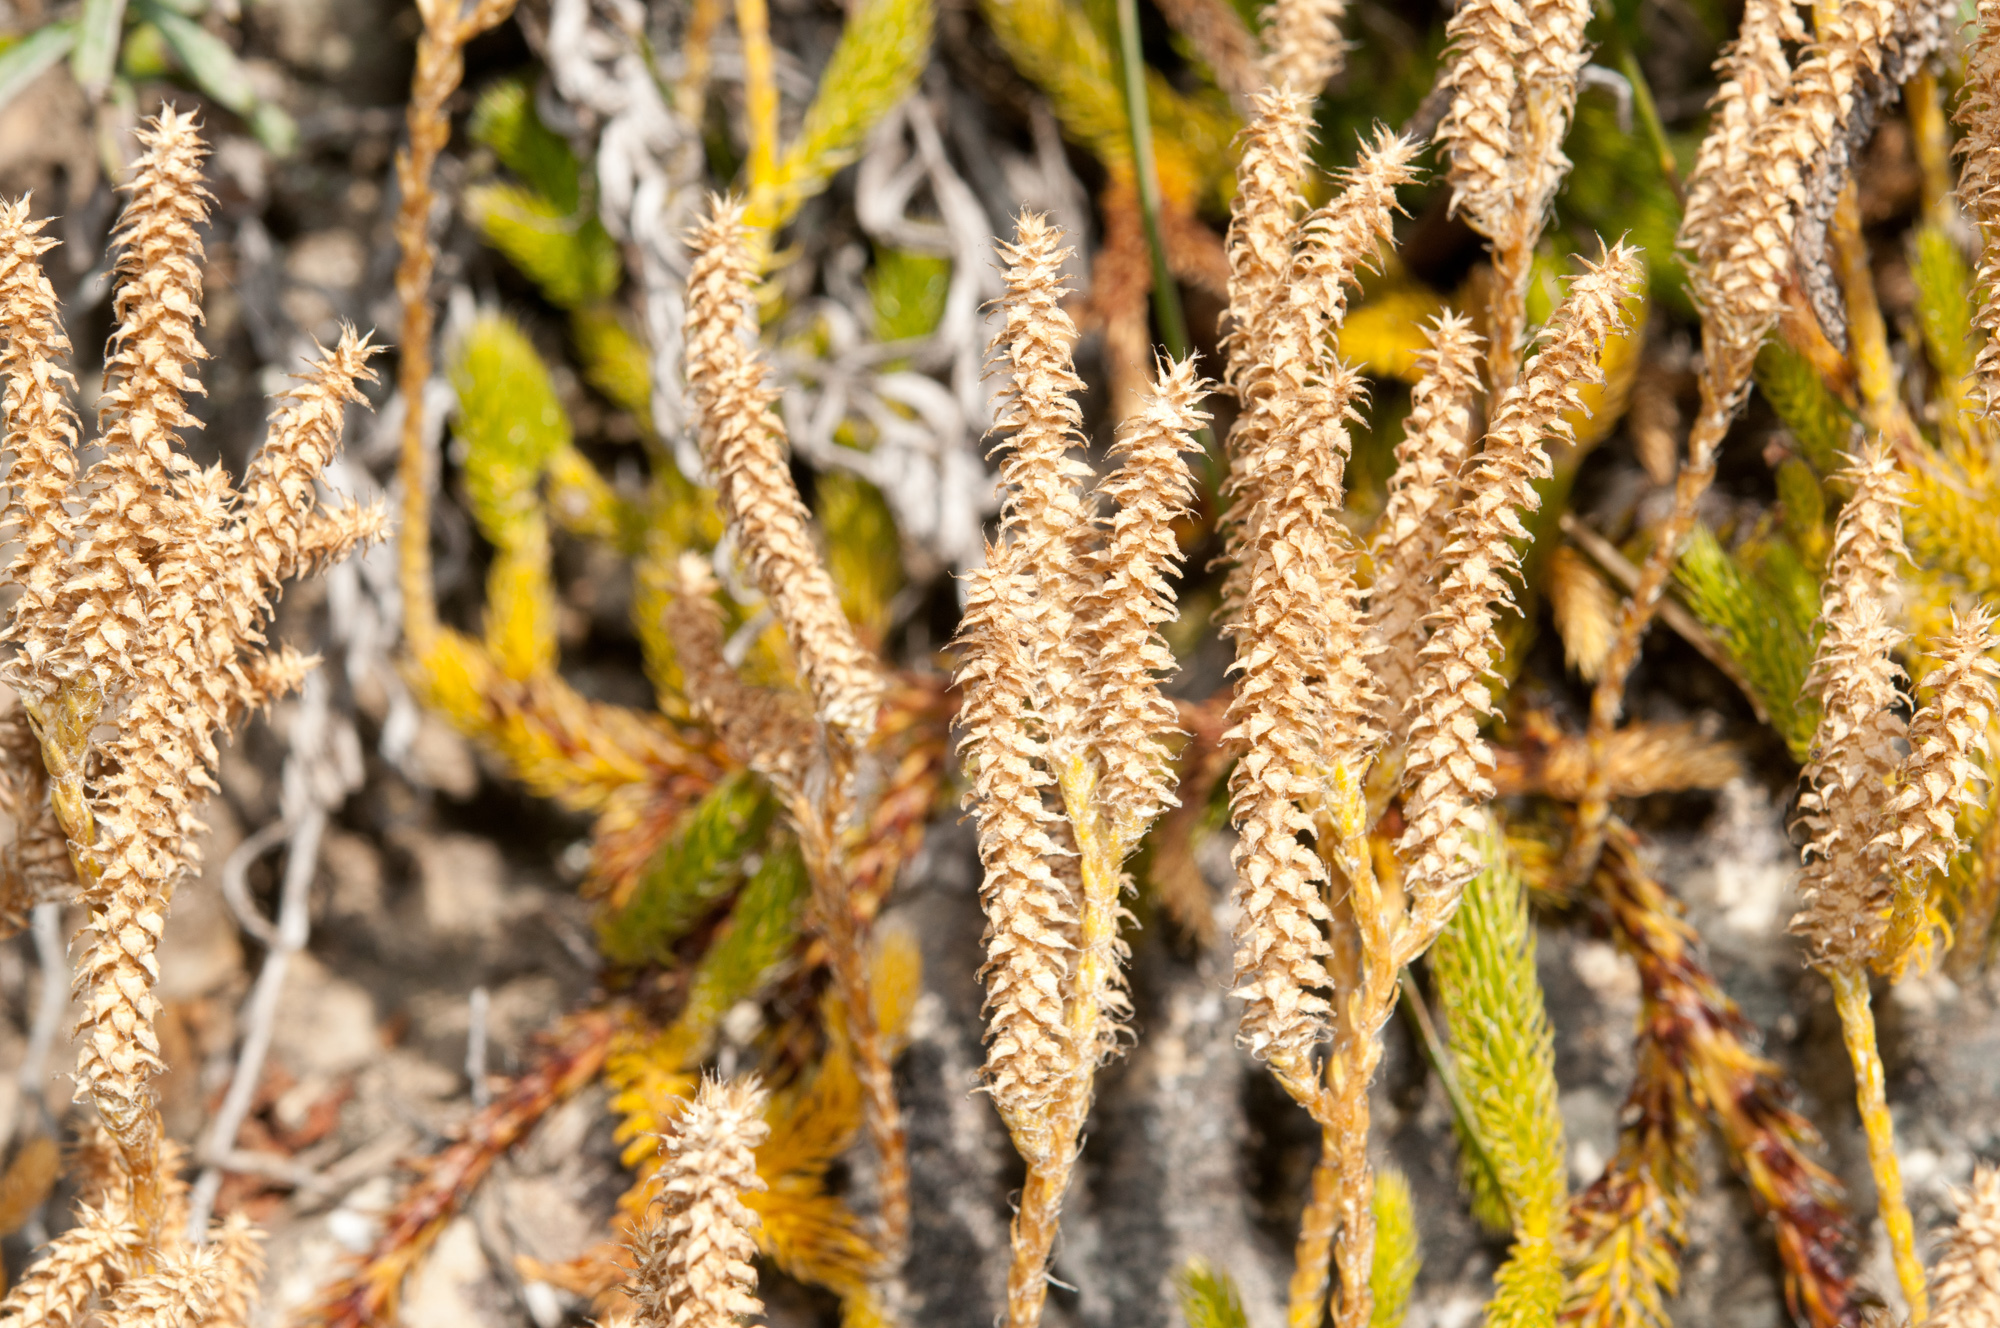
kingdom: Plantae
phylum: Tracheophyta
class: Lycopodiopsida
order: Lycopodiales
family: Lycopodiaceae
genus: Lycopodium
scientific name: Lycopodium clavatum
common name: Stag's-horn clubmoss
